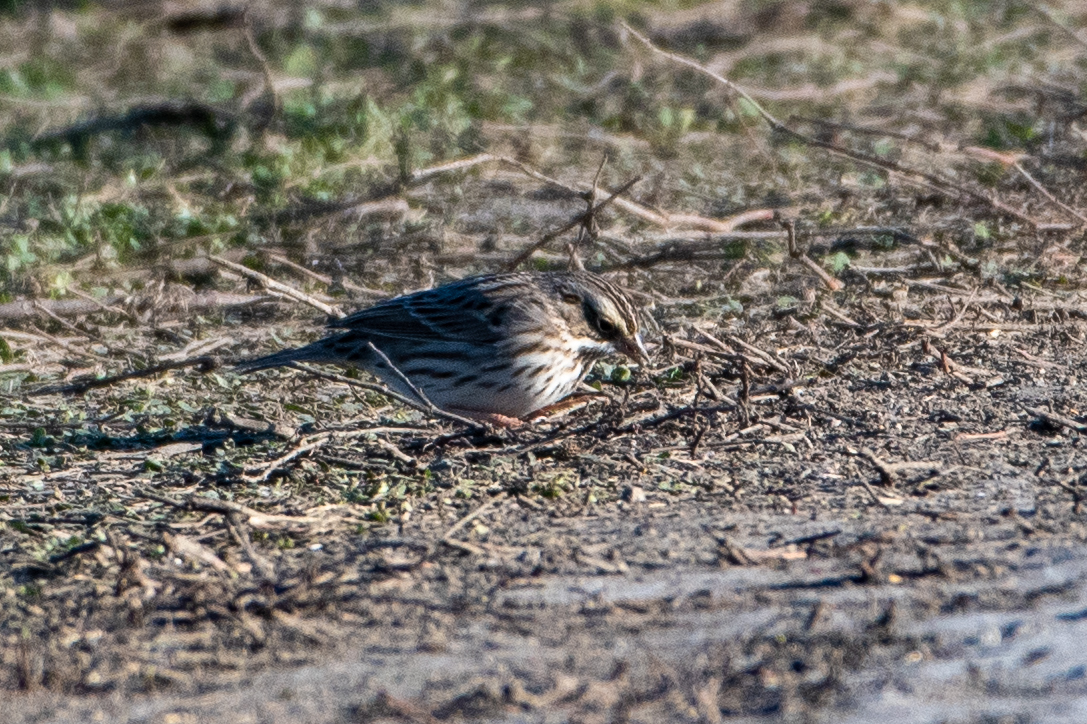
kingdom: Animalia
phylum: Chordata
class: Aves
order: Passeriformes
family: Passerellidae
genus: Passerculus
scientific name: Passerculus sandwichensis
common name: Savannah sparrow
